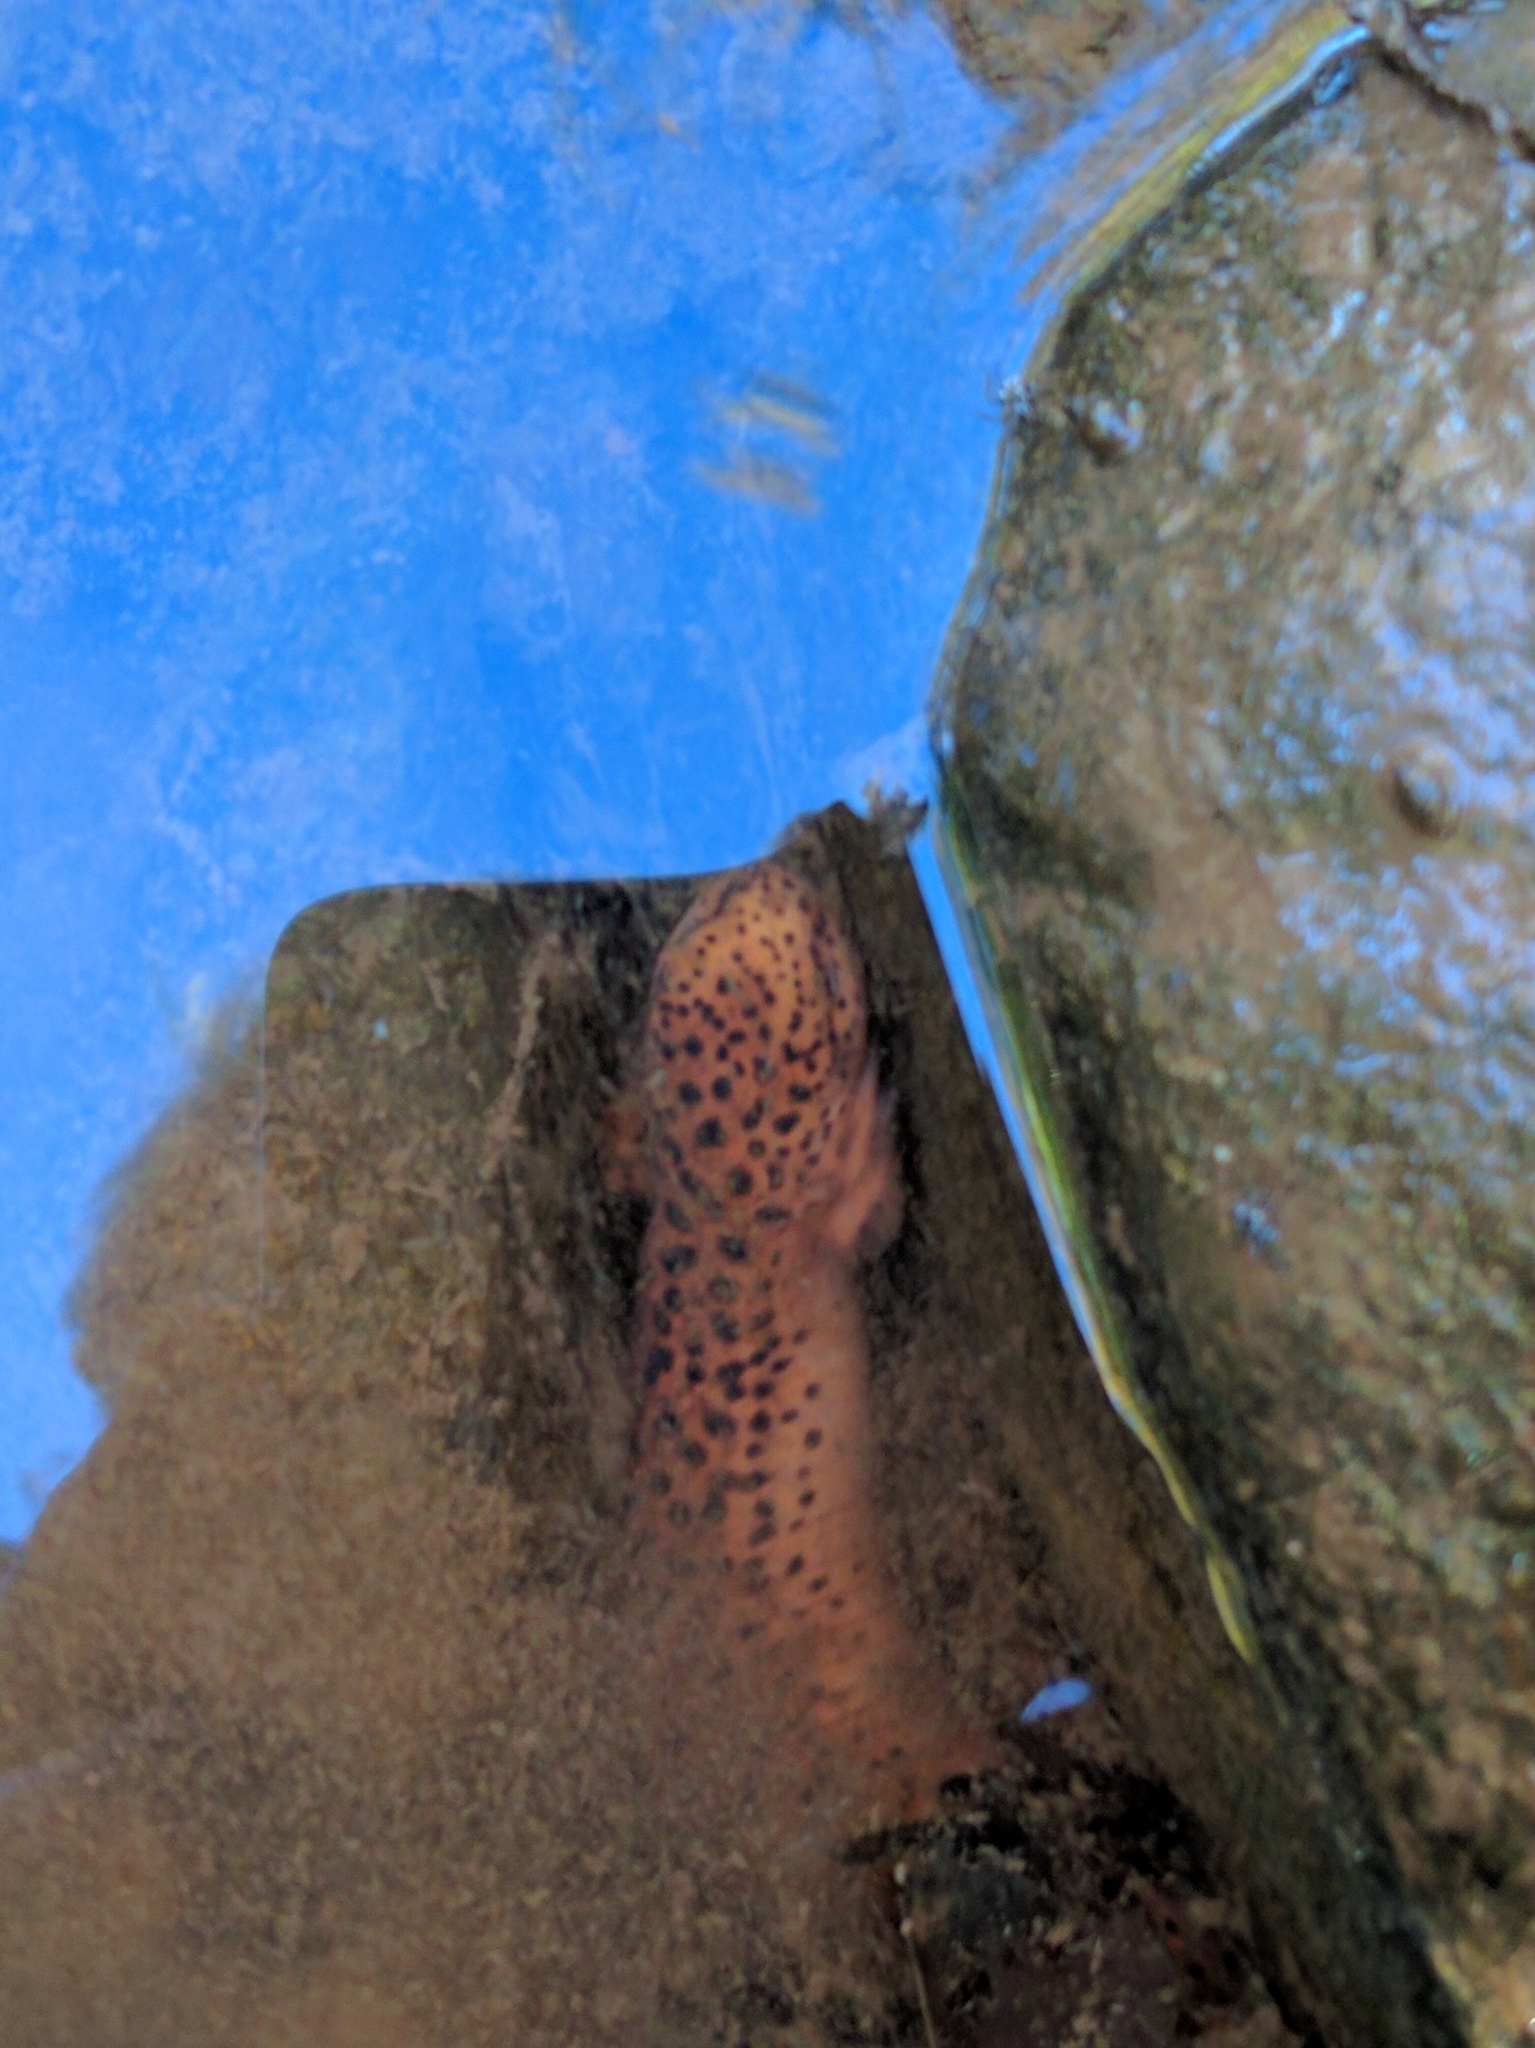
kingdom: Animalia
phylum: Chordata
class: Amphibia
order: Caudata
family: Plethodontidae
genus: Pseudotriton
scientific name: Pseudotriton ruber
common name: Red salamander
